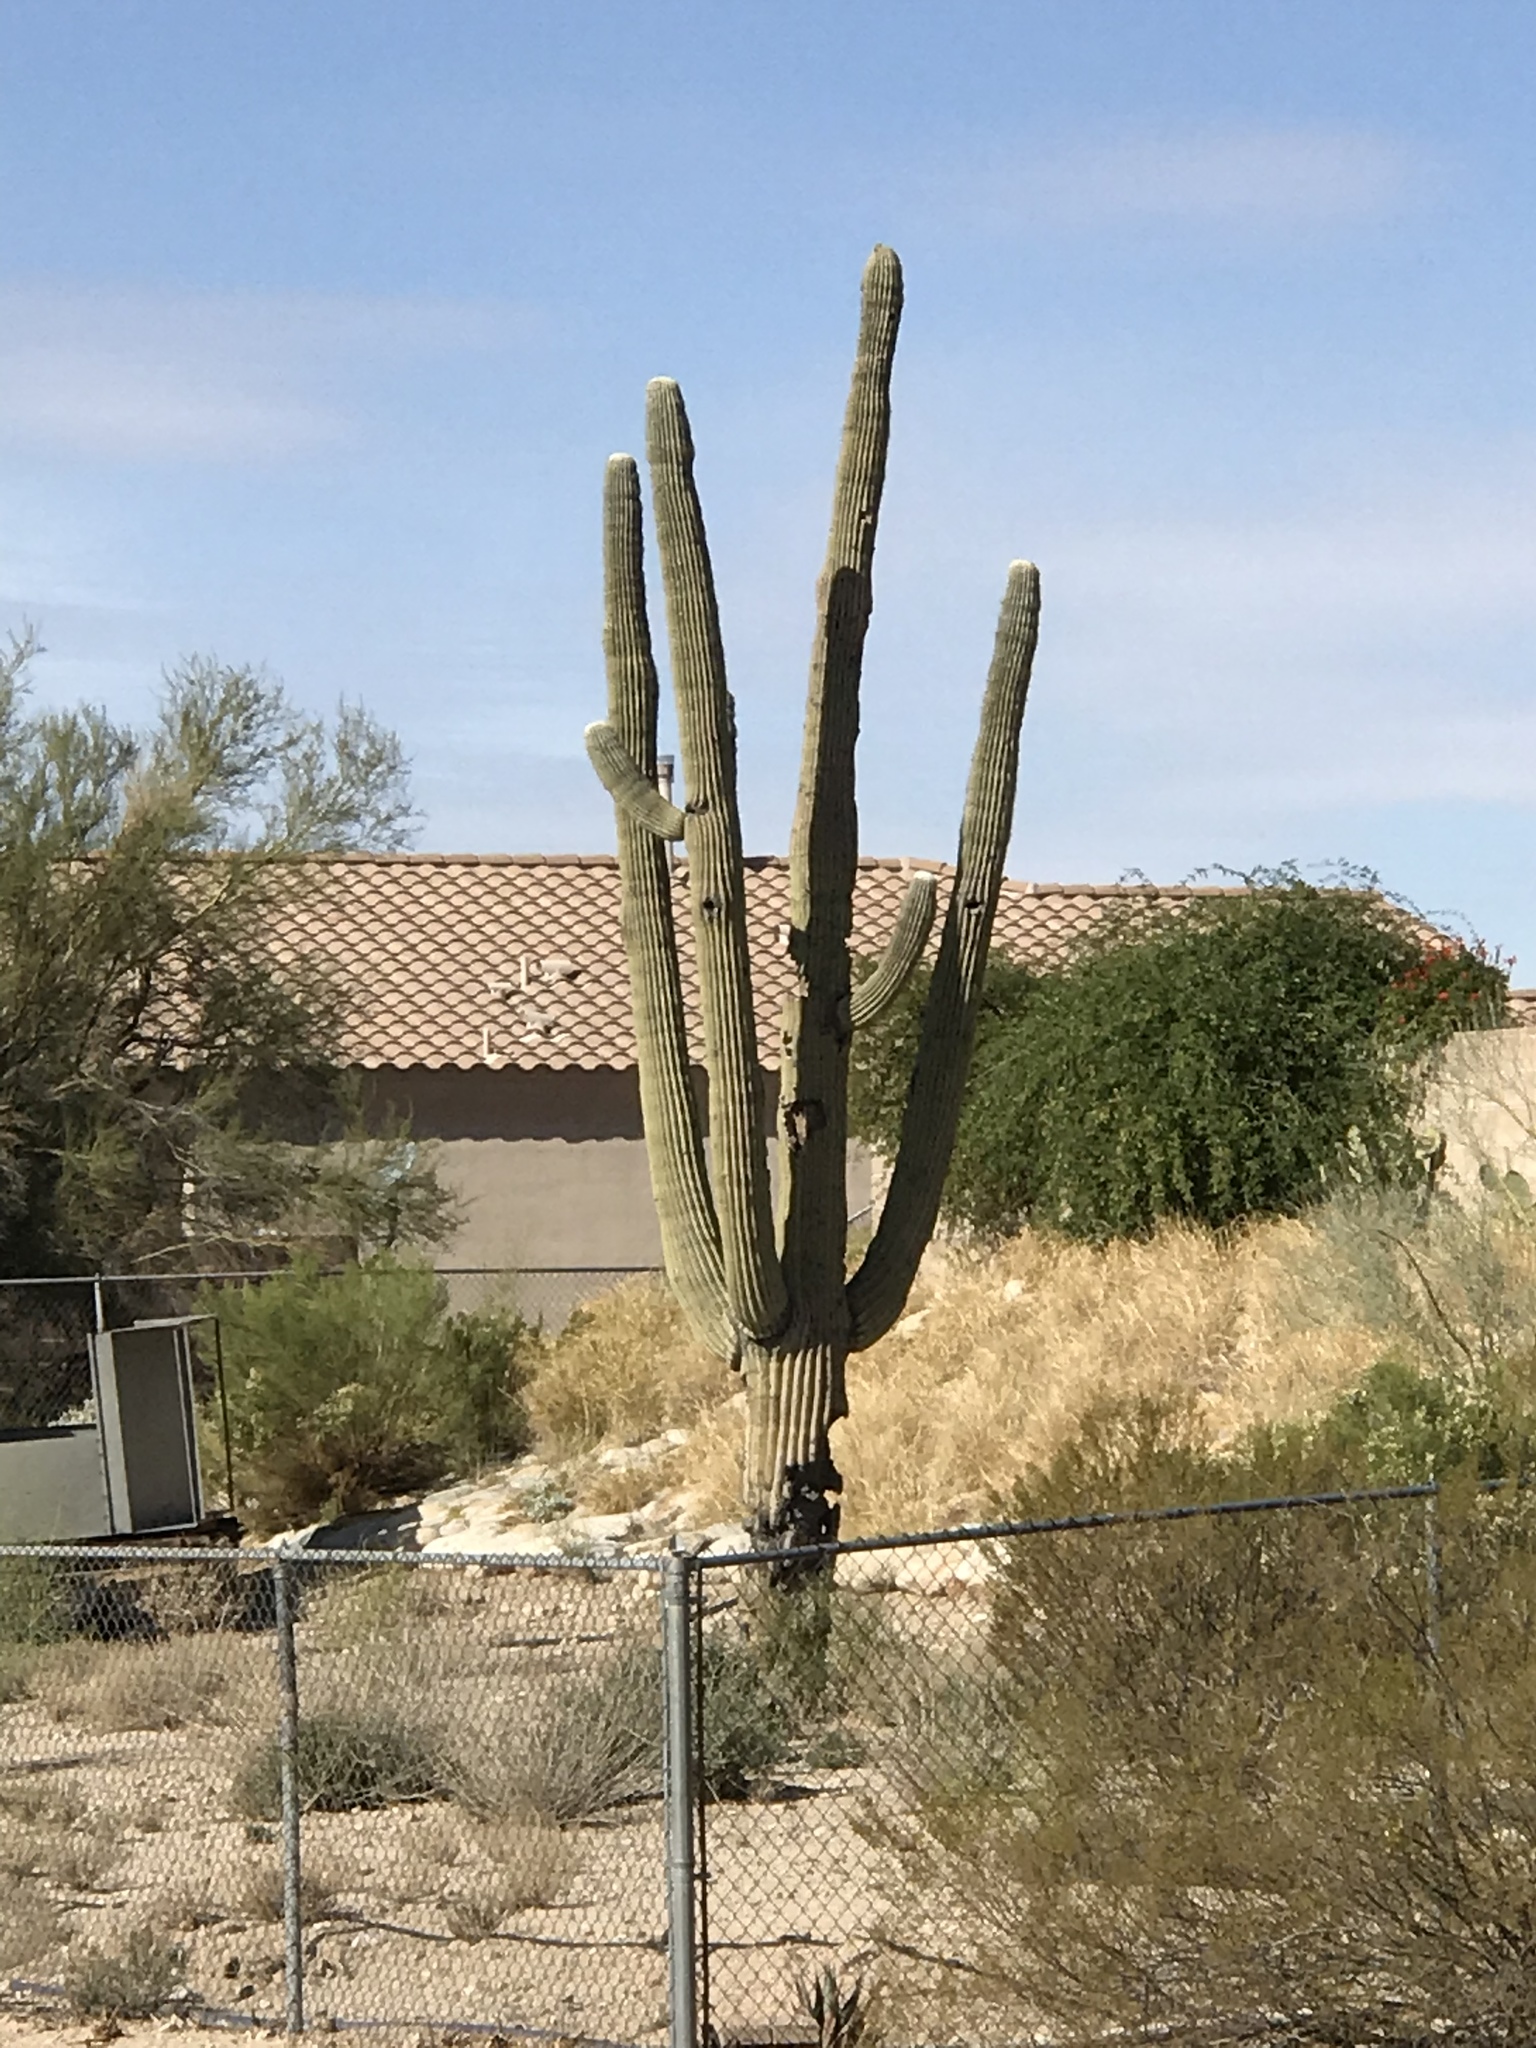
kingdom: Plantae
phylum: Tracheophyta
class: Magnoliopsida
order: Caryophyllales
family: Cactaceae
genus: Carnegiea
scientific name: Carnegiea gigantea
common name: Saguaro
